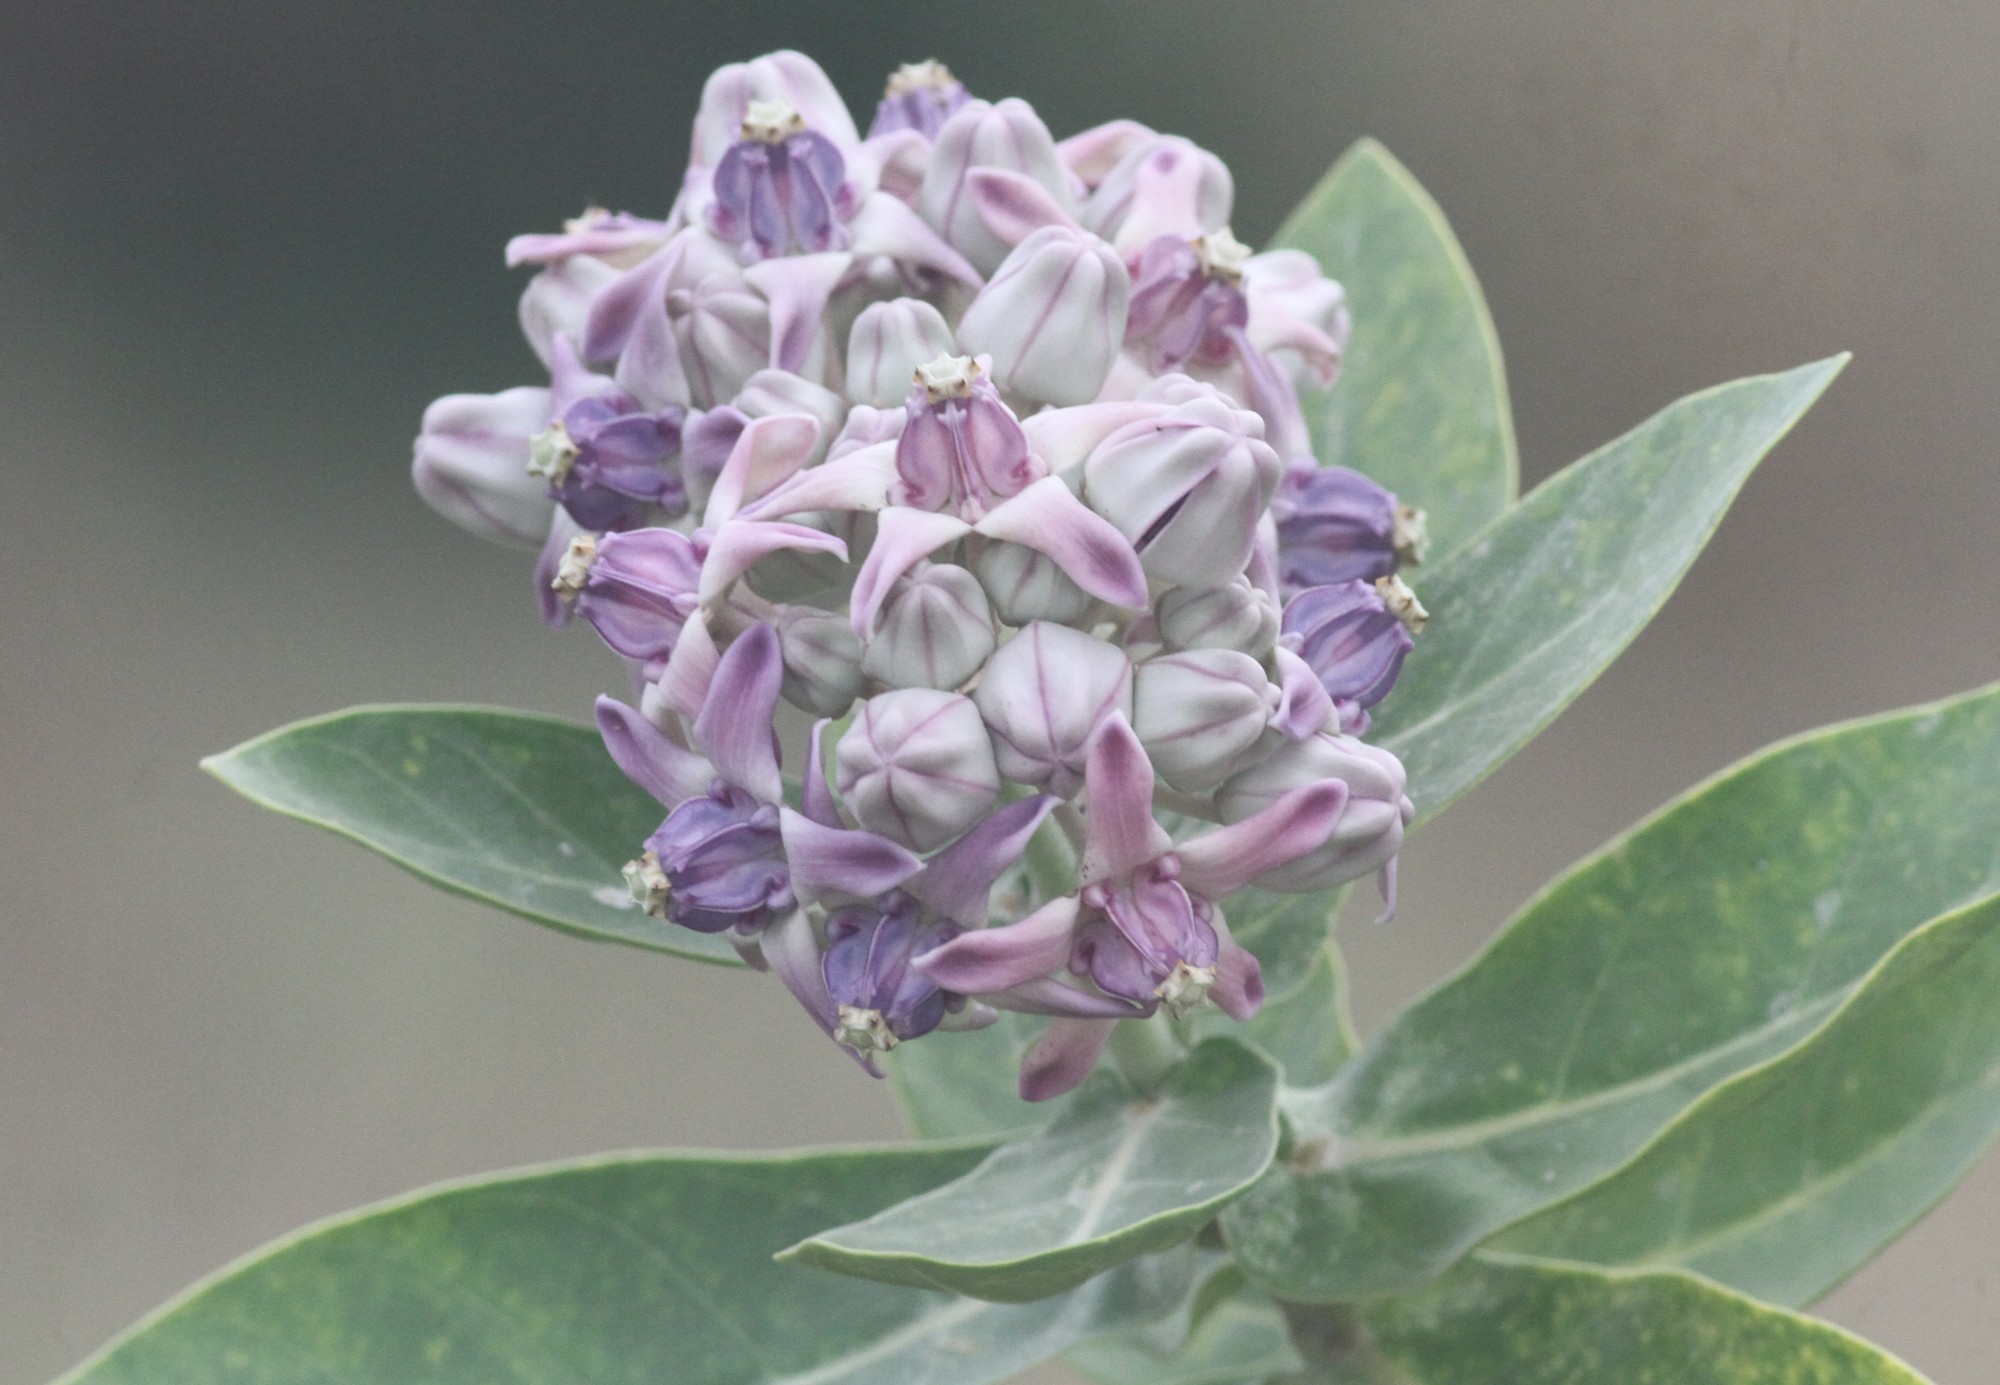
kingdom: Plantae
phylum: Tracheophyta
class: Magnoliopsida
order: Gentianales
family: Apocynaceae
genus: Calotropis
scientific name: Calotropis gigantea
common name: Crown flower
